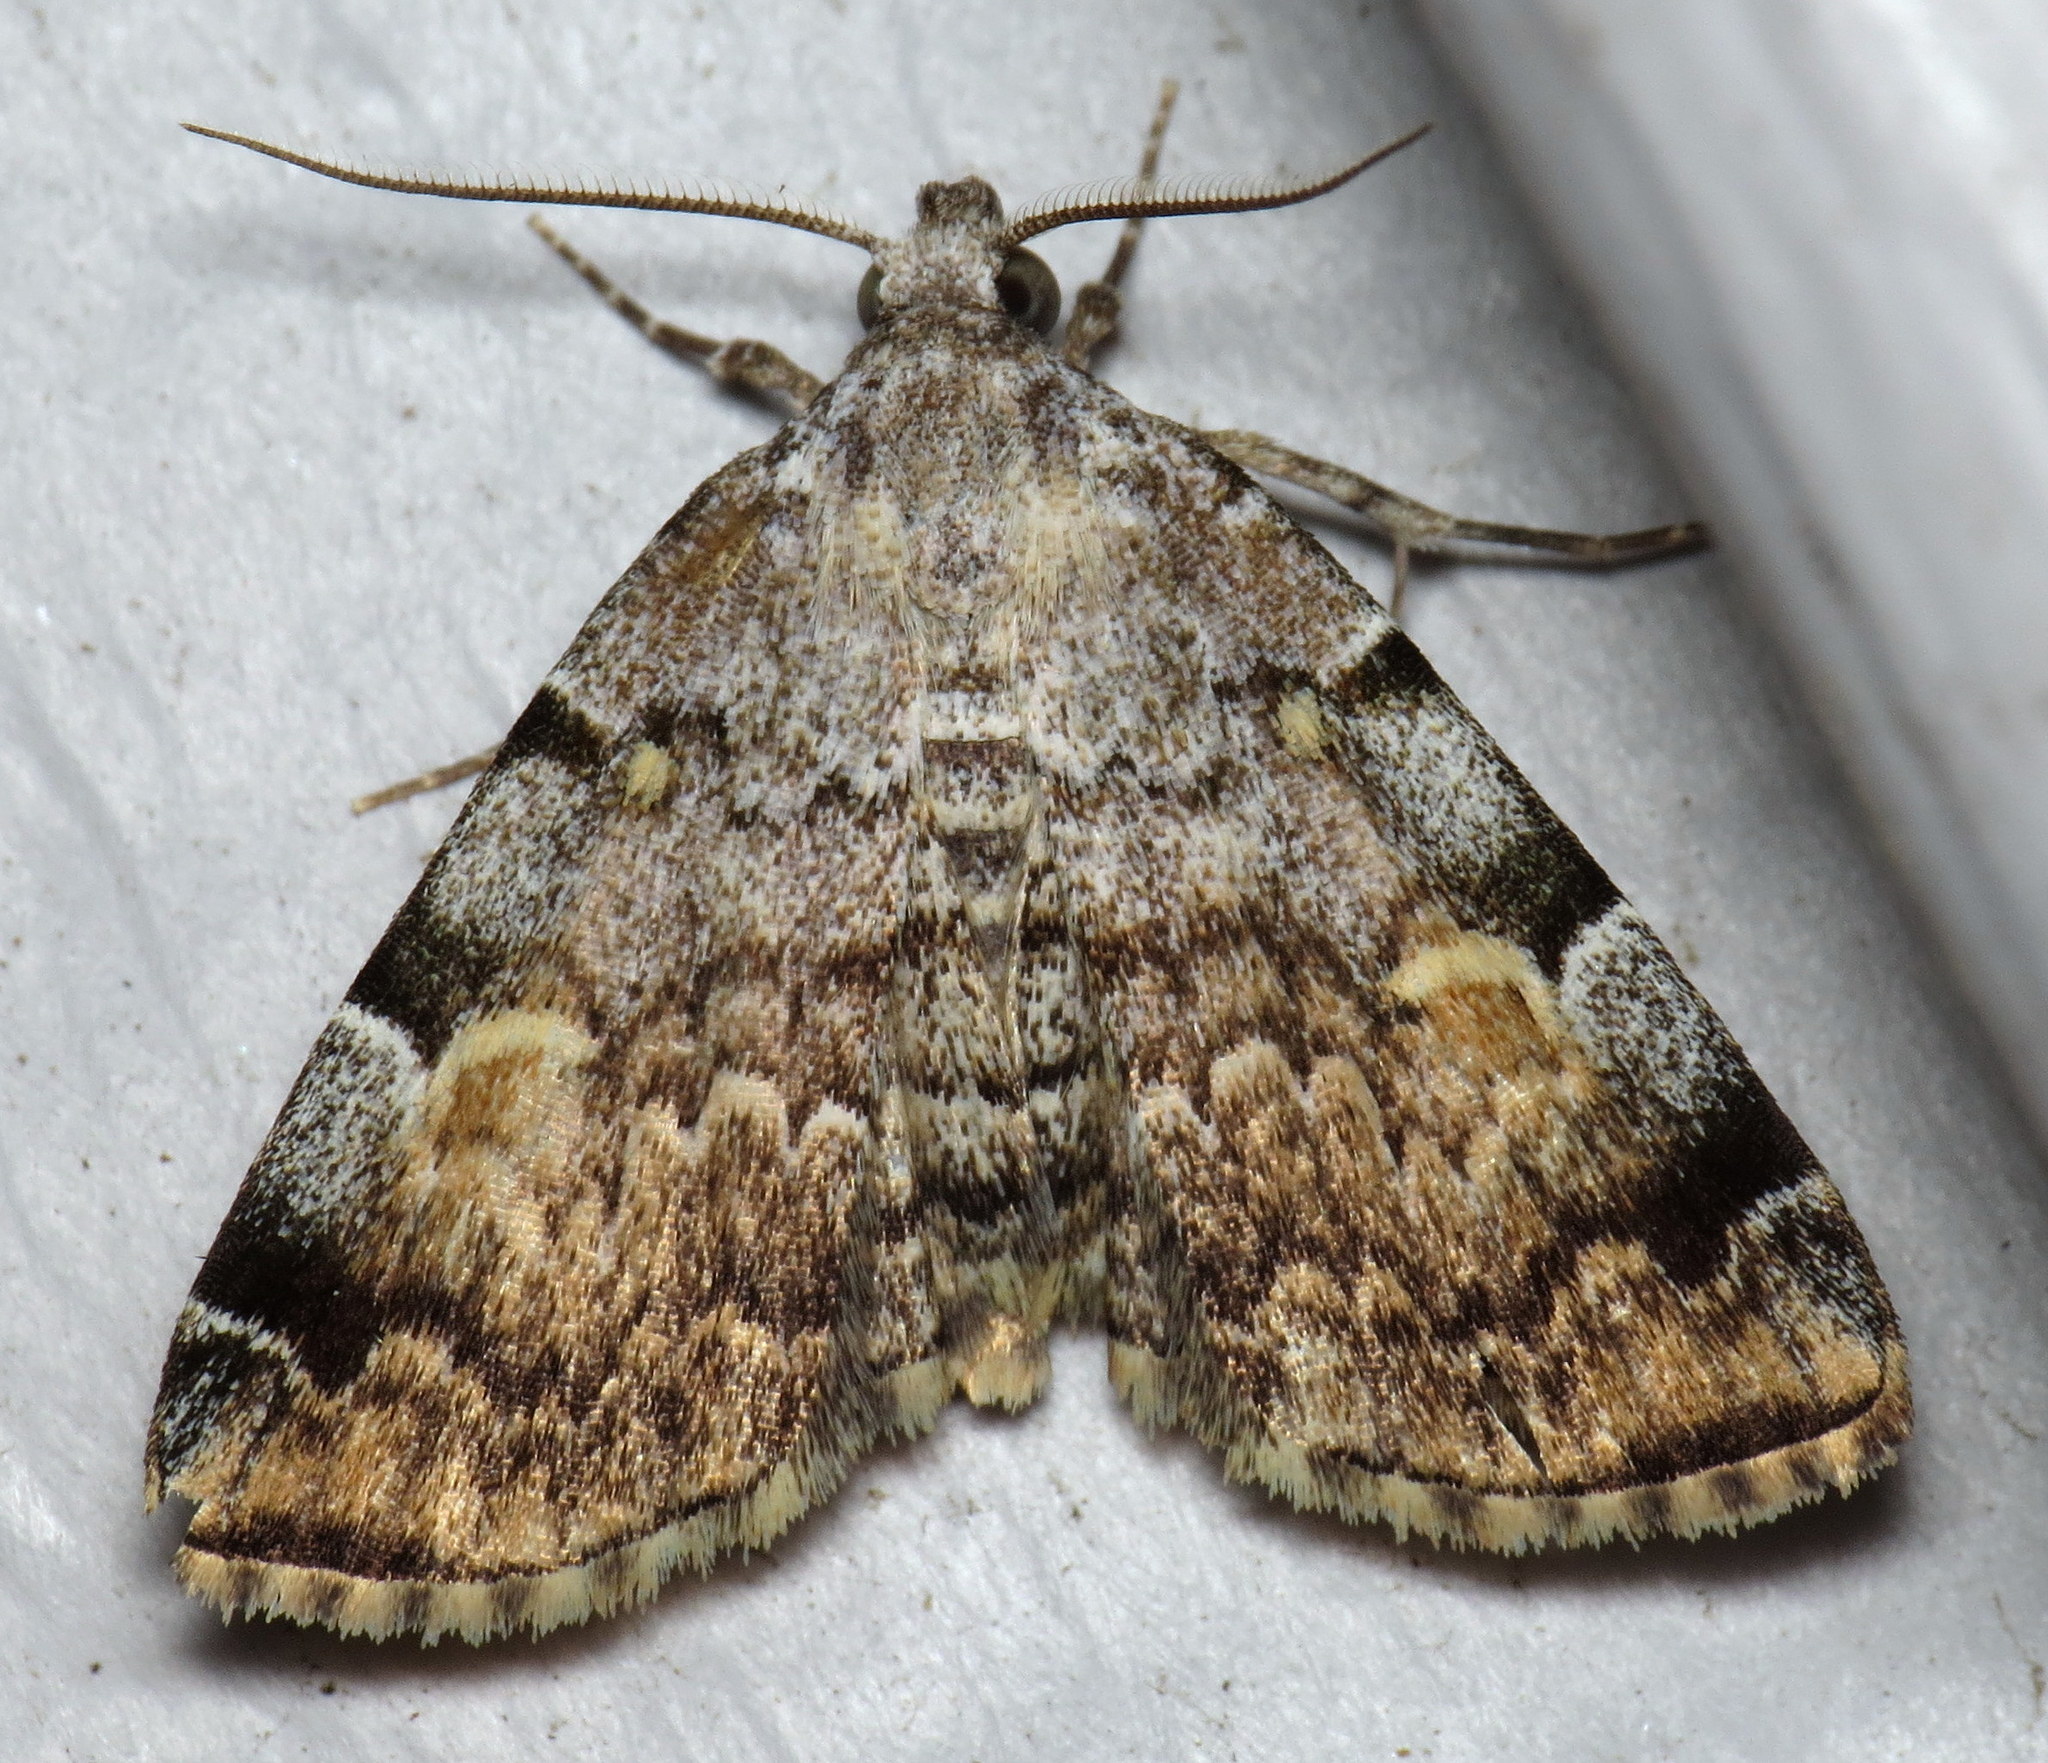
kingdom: Animalia
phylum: Arthropoda
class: Insecta
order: Lepidoptera
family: Erebidae
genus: Idia
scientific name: Idia americalis
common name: American idia moth
